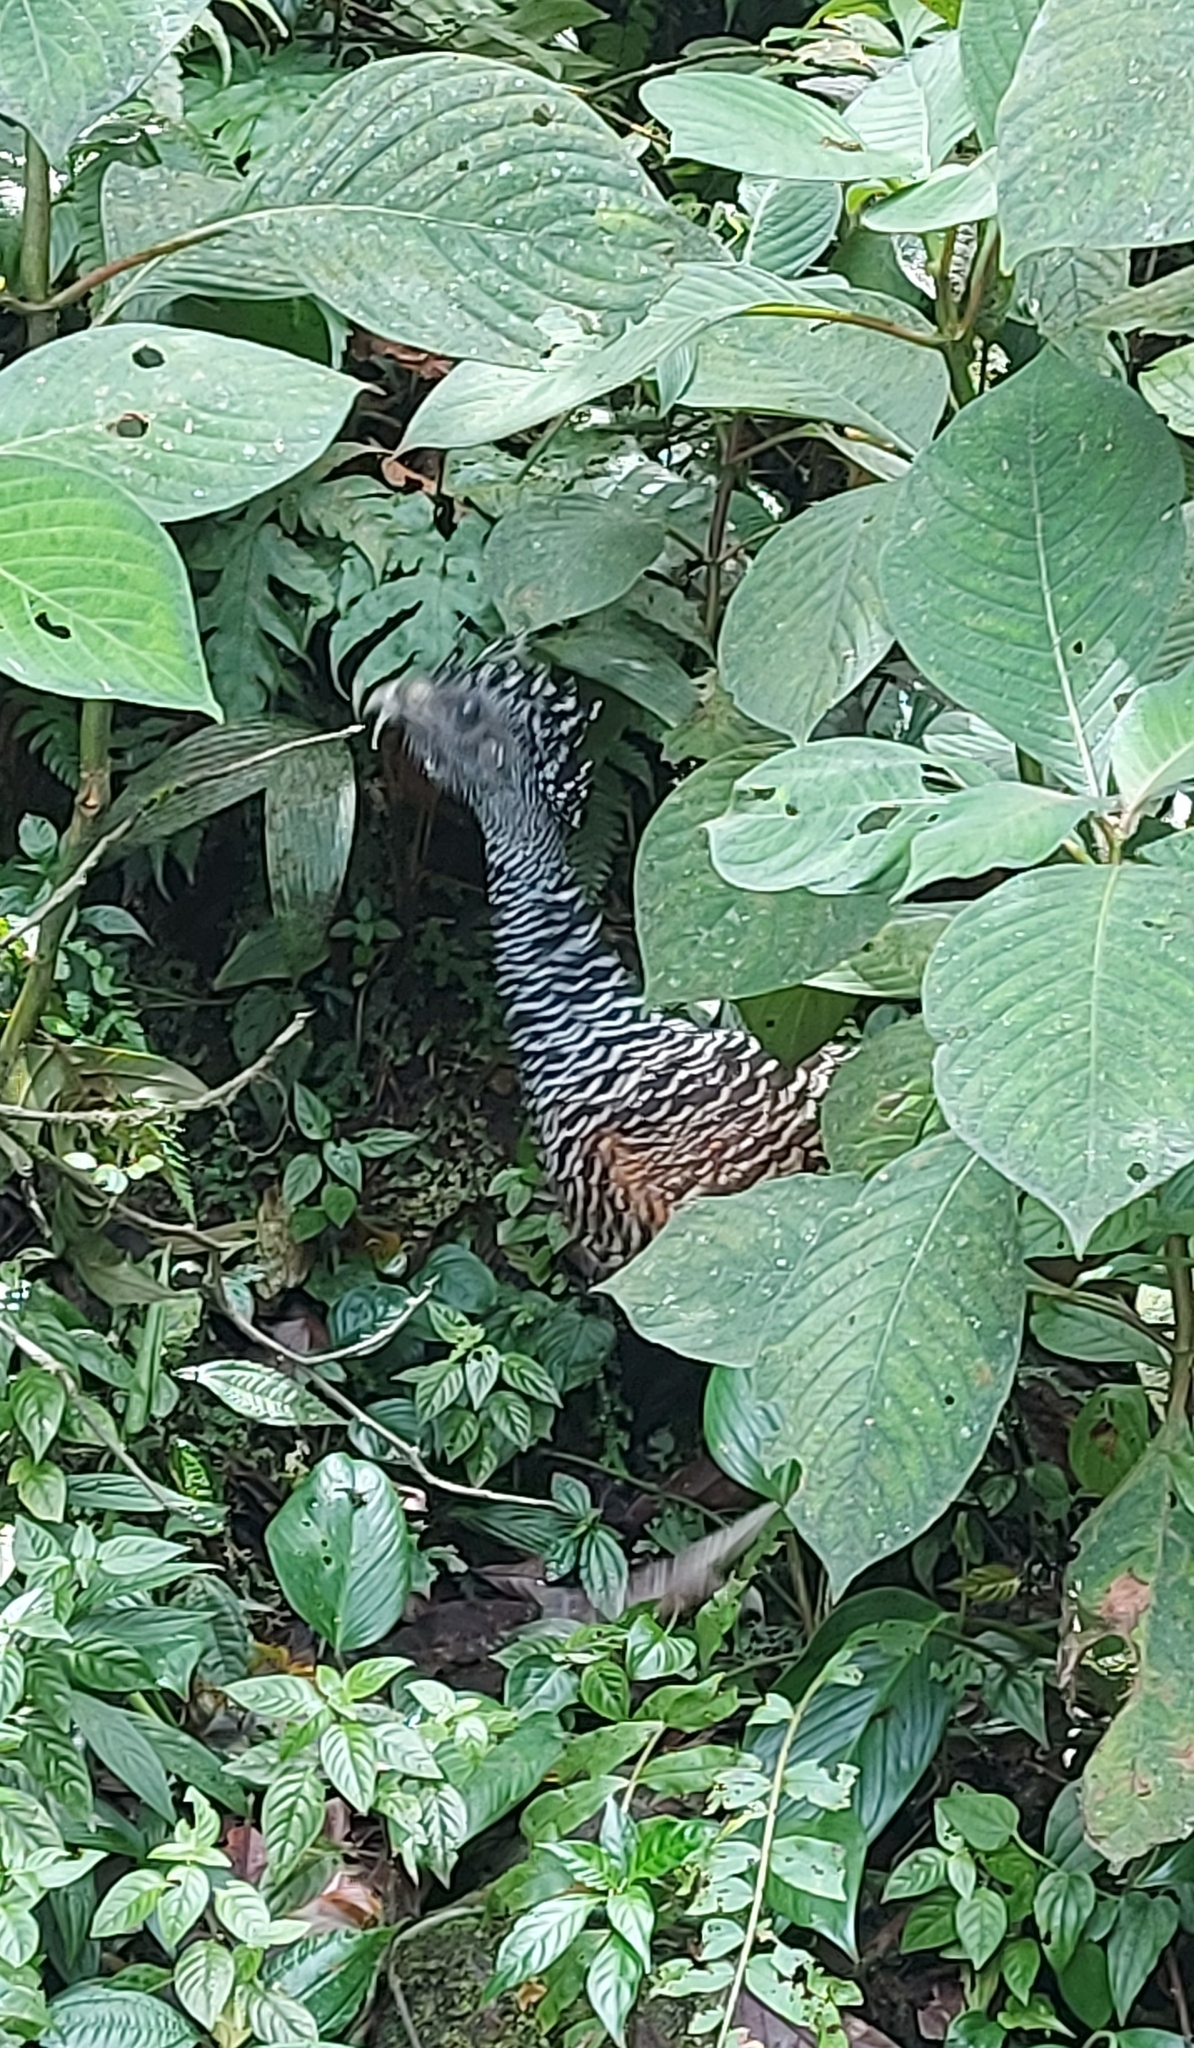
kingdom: Animalia
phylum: Chordata
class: Aves
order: Galliformes
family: Cracidae
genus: Crax
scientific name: Crax rubra
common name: Great curassow
